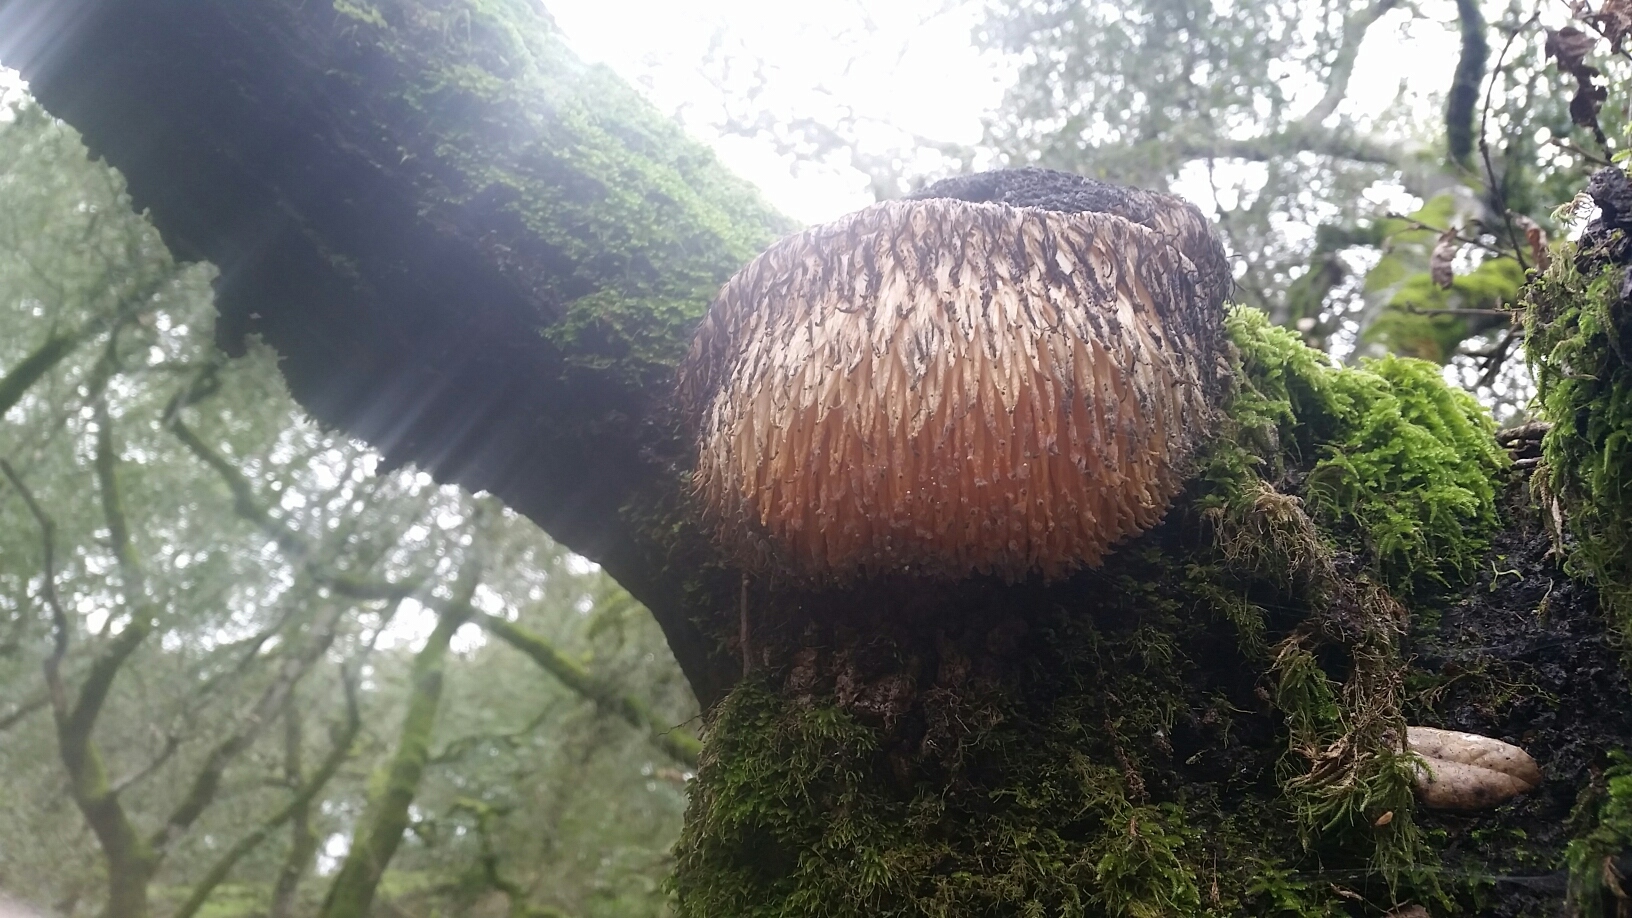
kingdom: Fungi
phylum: Basidiomycota
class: Agaricomycetes
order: Russulales
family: Hericiaceae
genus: Hericium
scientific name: Hericium erinaceus
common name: Bearded tooth
